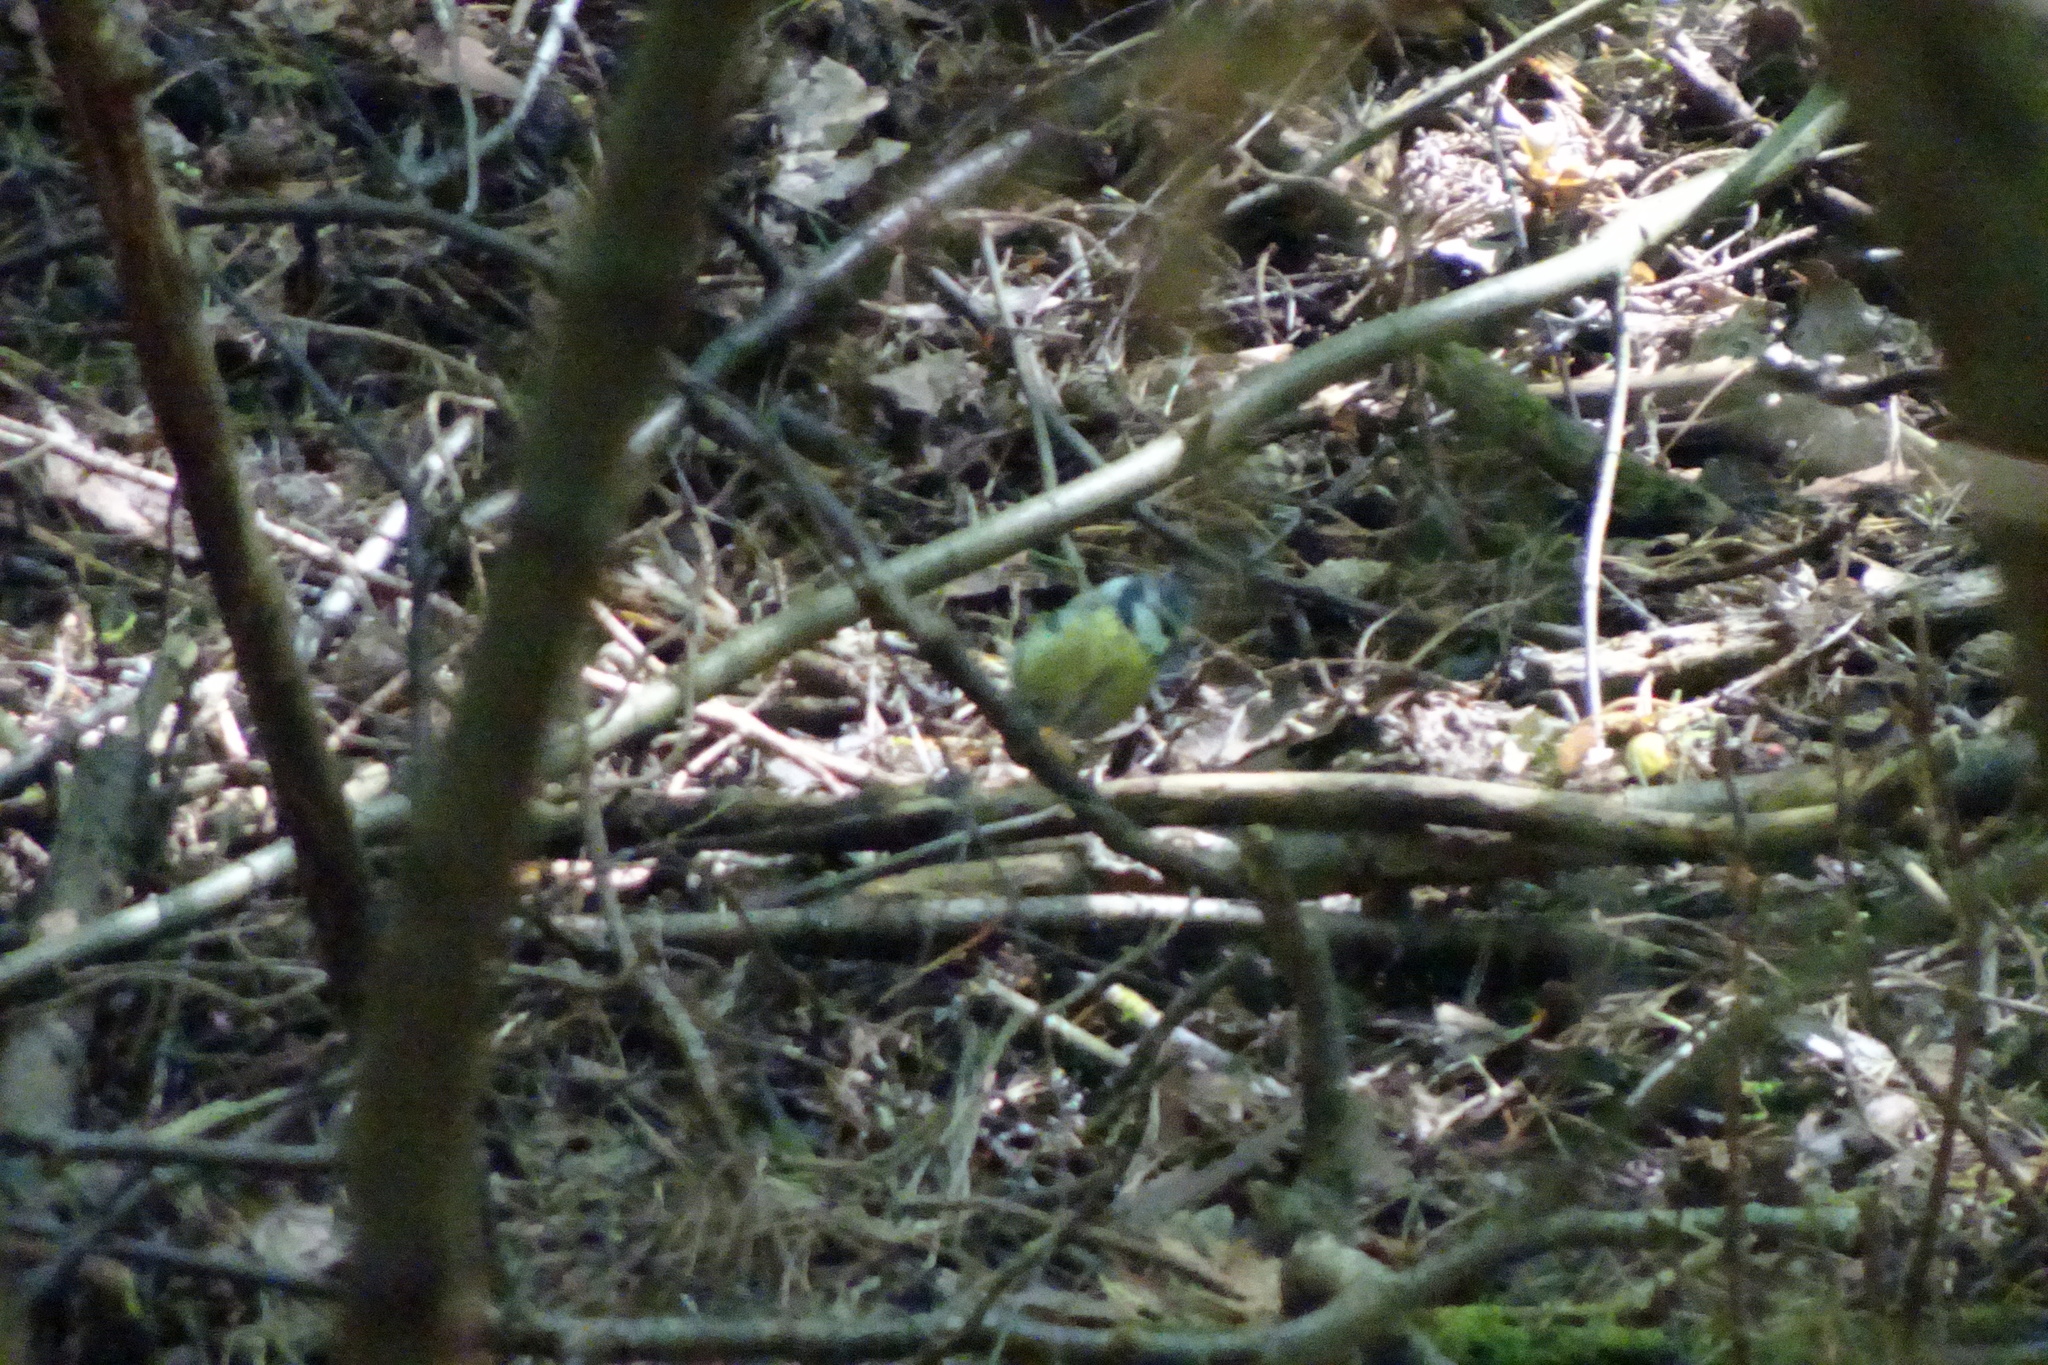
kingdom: Animalia
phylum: Chordata
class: Aves
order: Passeriformes
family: Paridae
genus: Cyanistes
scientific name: Cyanistes caeruleus
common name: Eurasian blue tit
